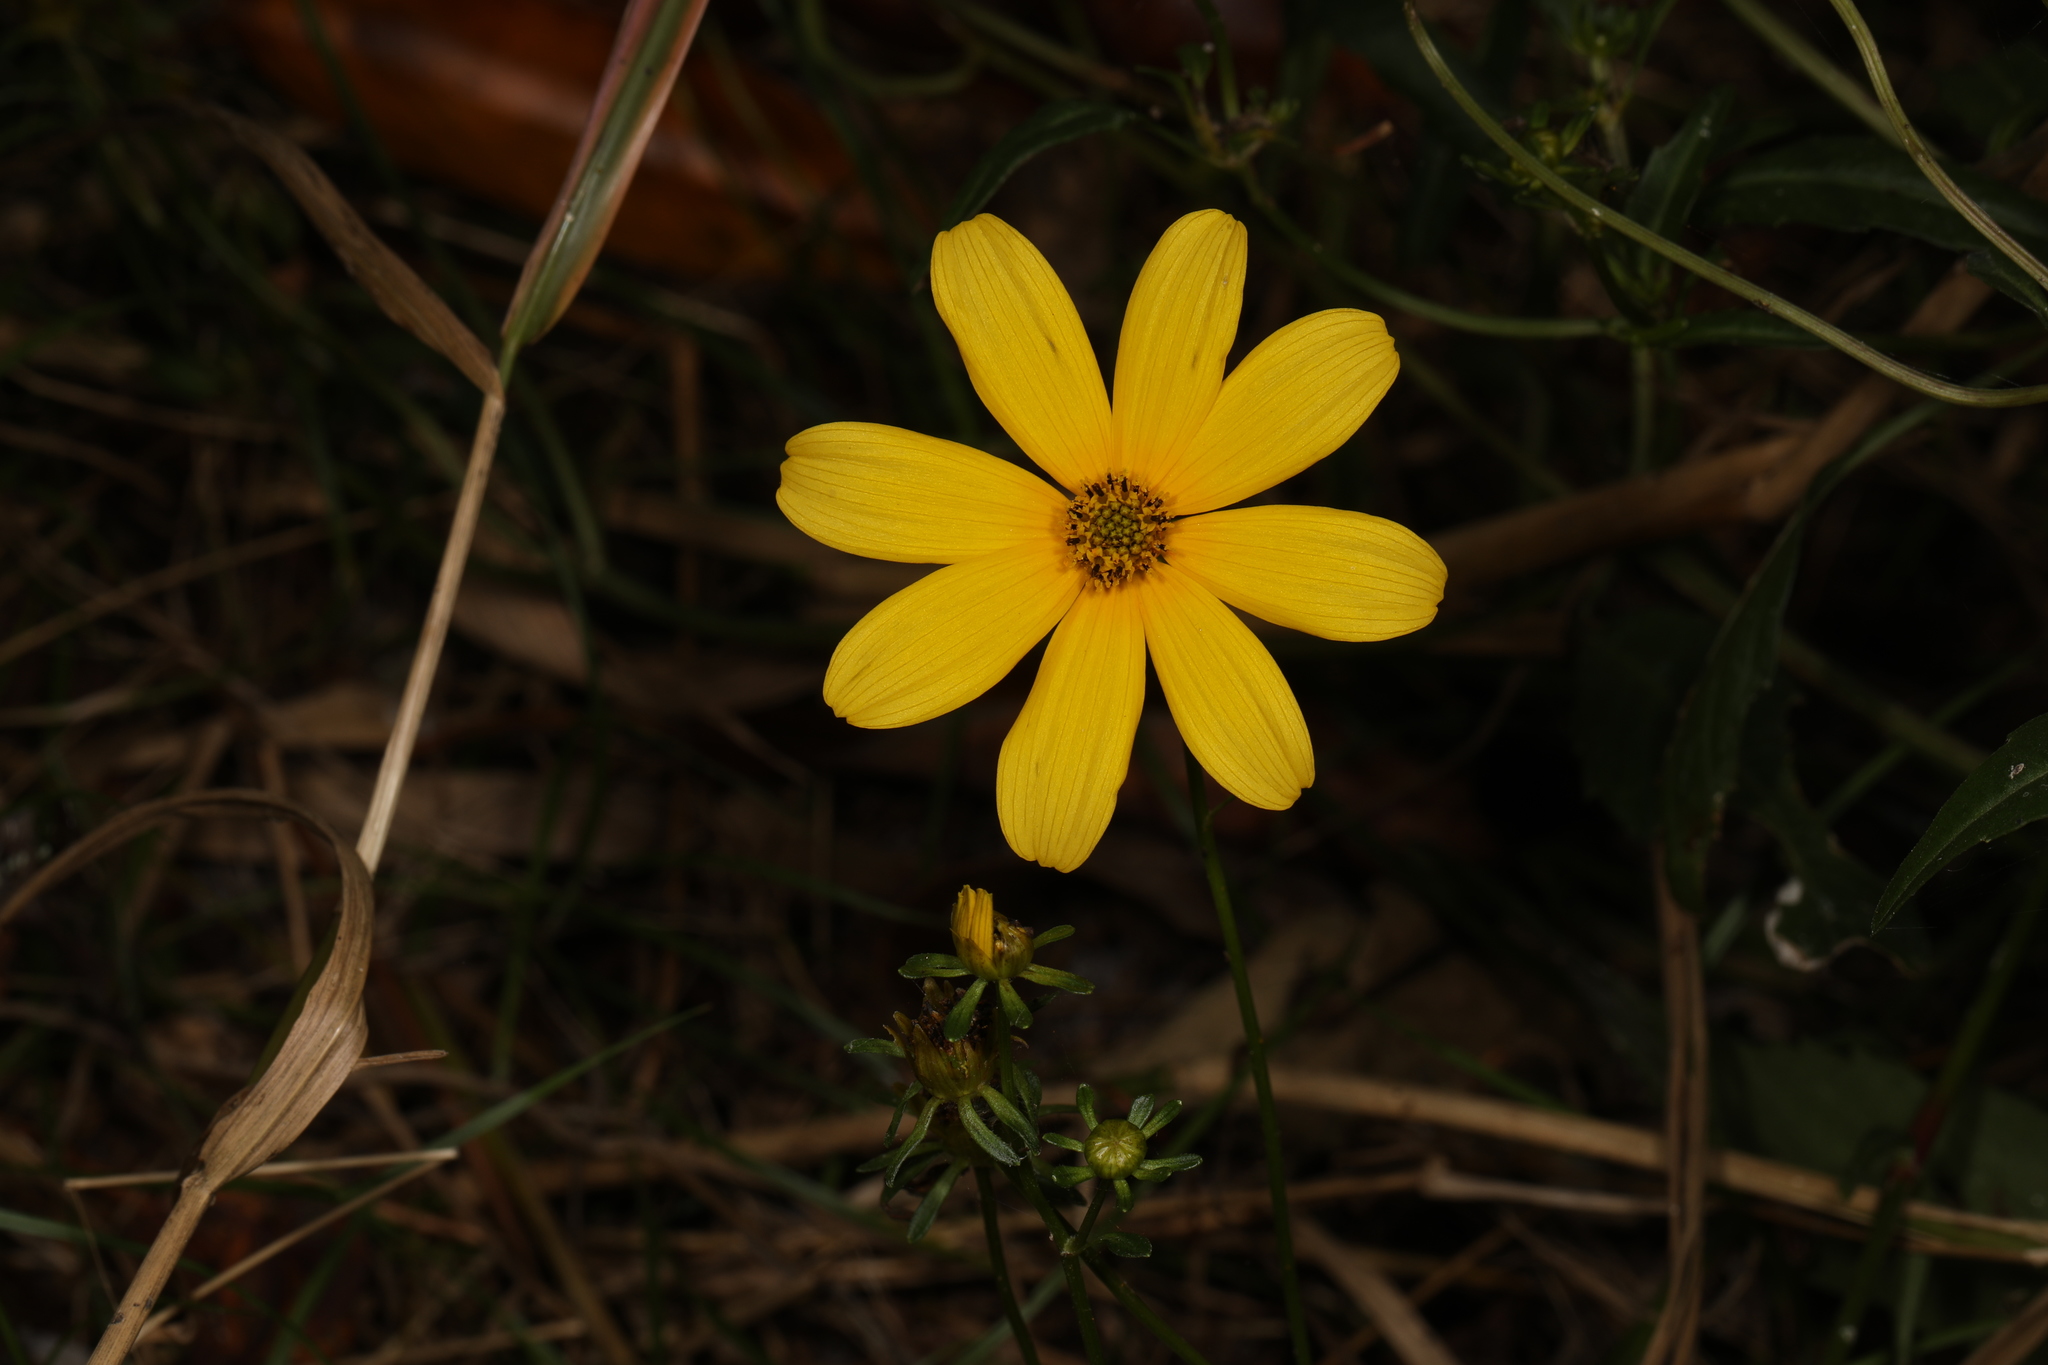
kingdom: Plantae
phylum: Tracheophyta
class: Magnoliopsida
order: Asterales
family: Asteraceae
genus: Bidens
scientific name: Bidens mitis
